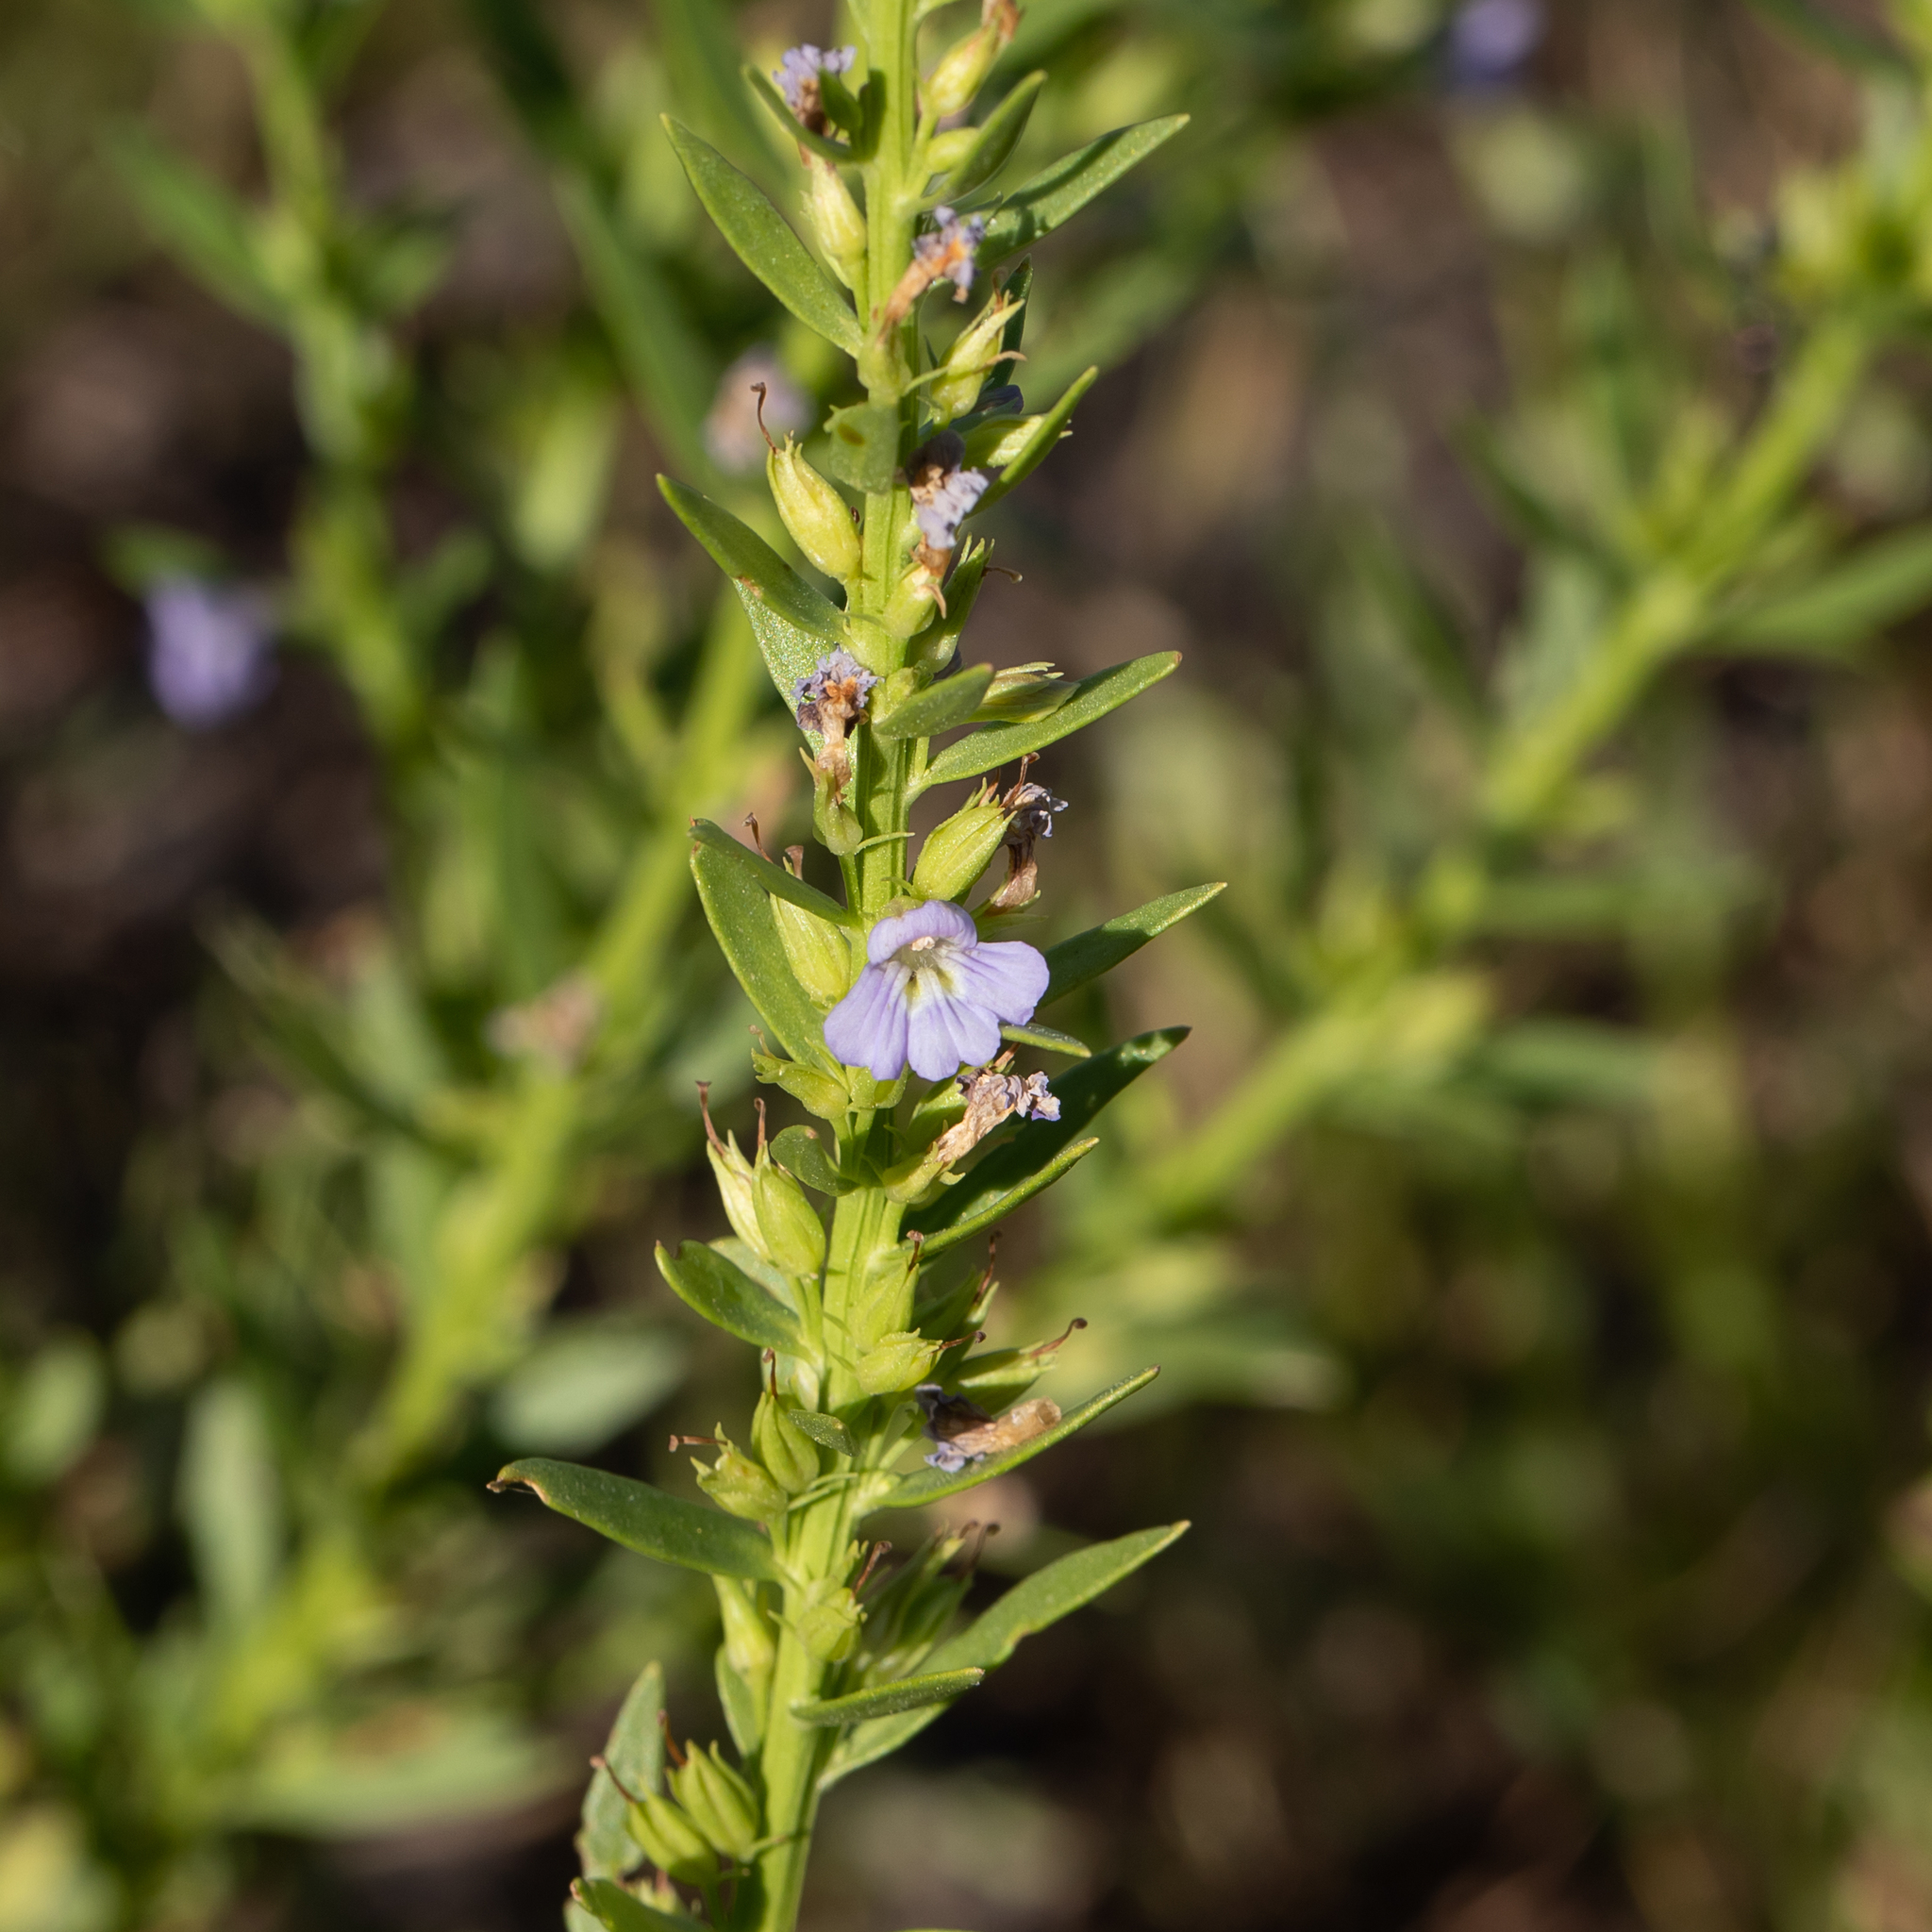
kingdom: Plantae
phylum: Tracheophyta
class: Magnoliopsida
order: Lamiales
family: Plantaginaceae
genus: Stemodia
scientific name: Stemodia florulenta
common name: Bluerod
